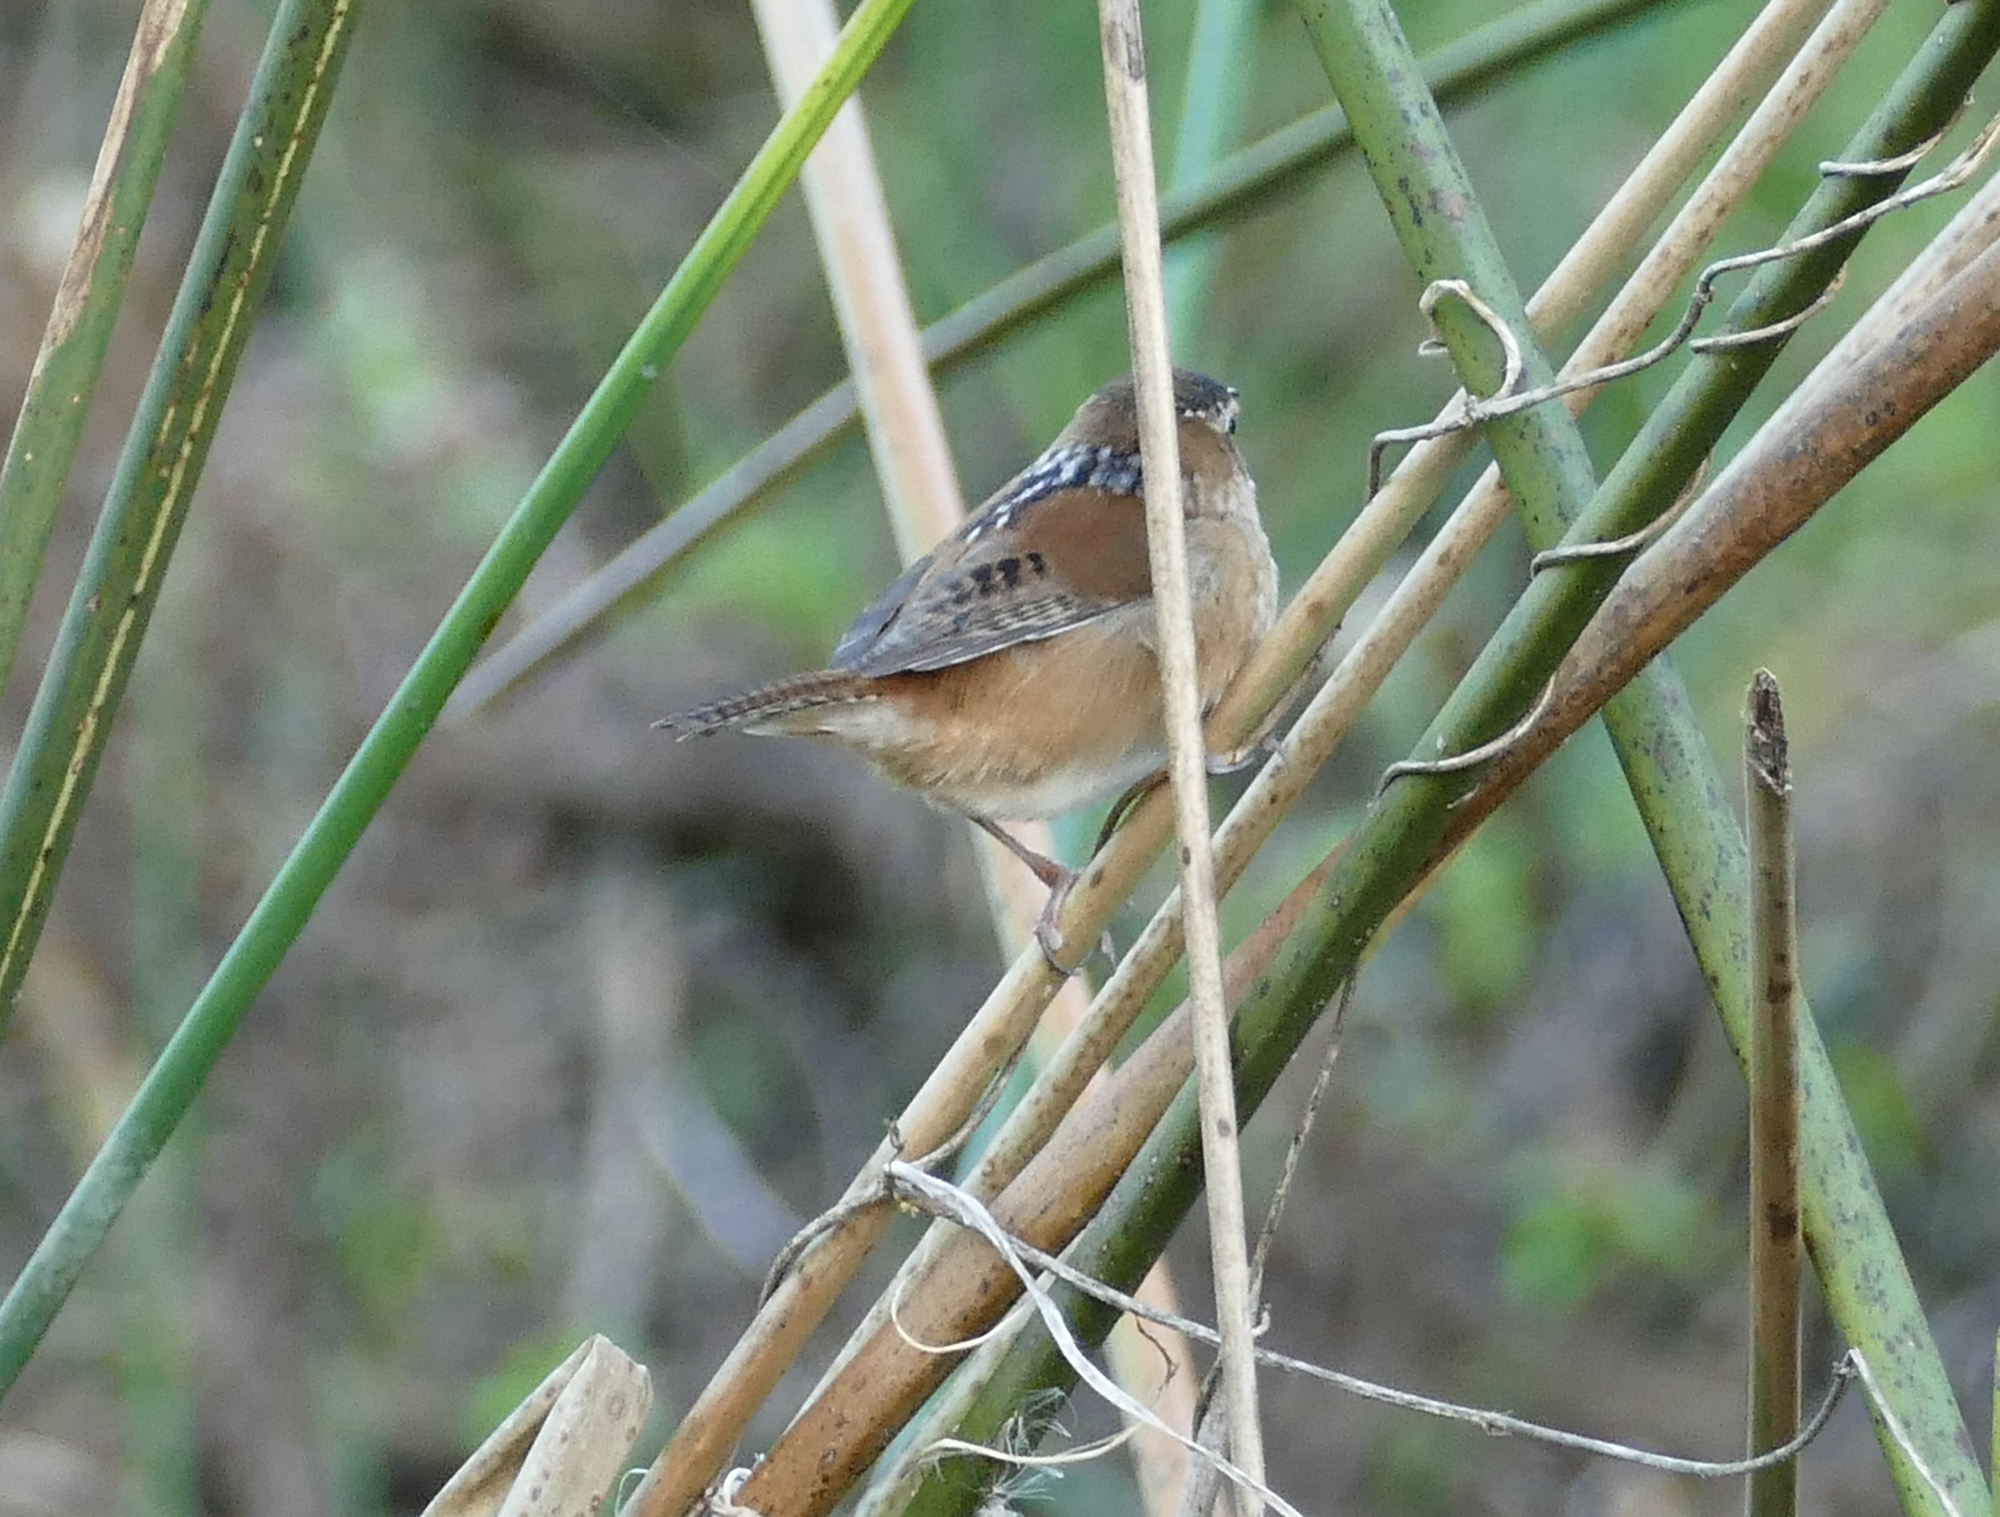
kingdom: Animalia
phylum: Chordata
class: Aves
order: Passeriformes
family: Troglodytidae
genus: Cistothorus
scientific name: Cistothorus palustris
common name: Marsh wren
